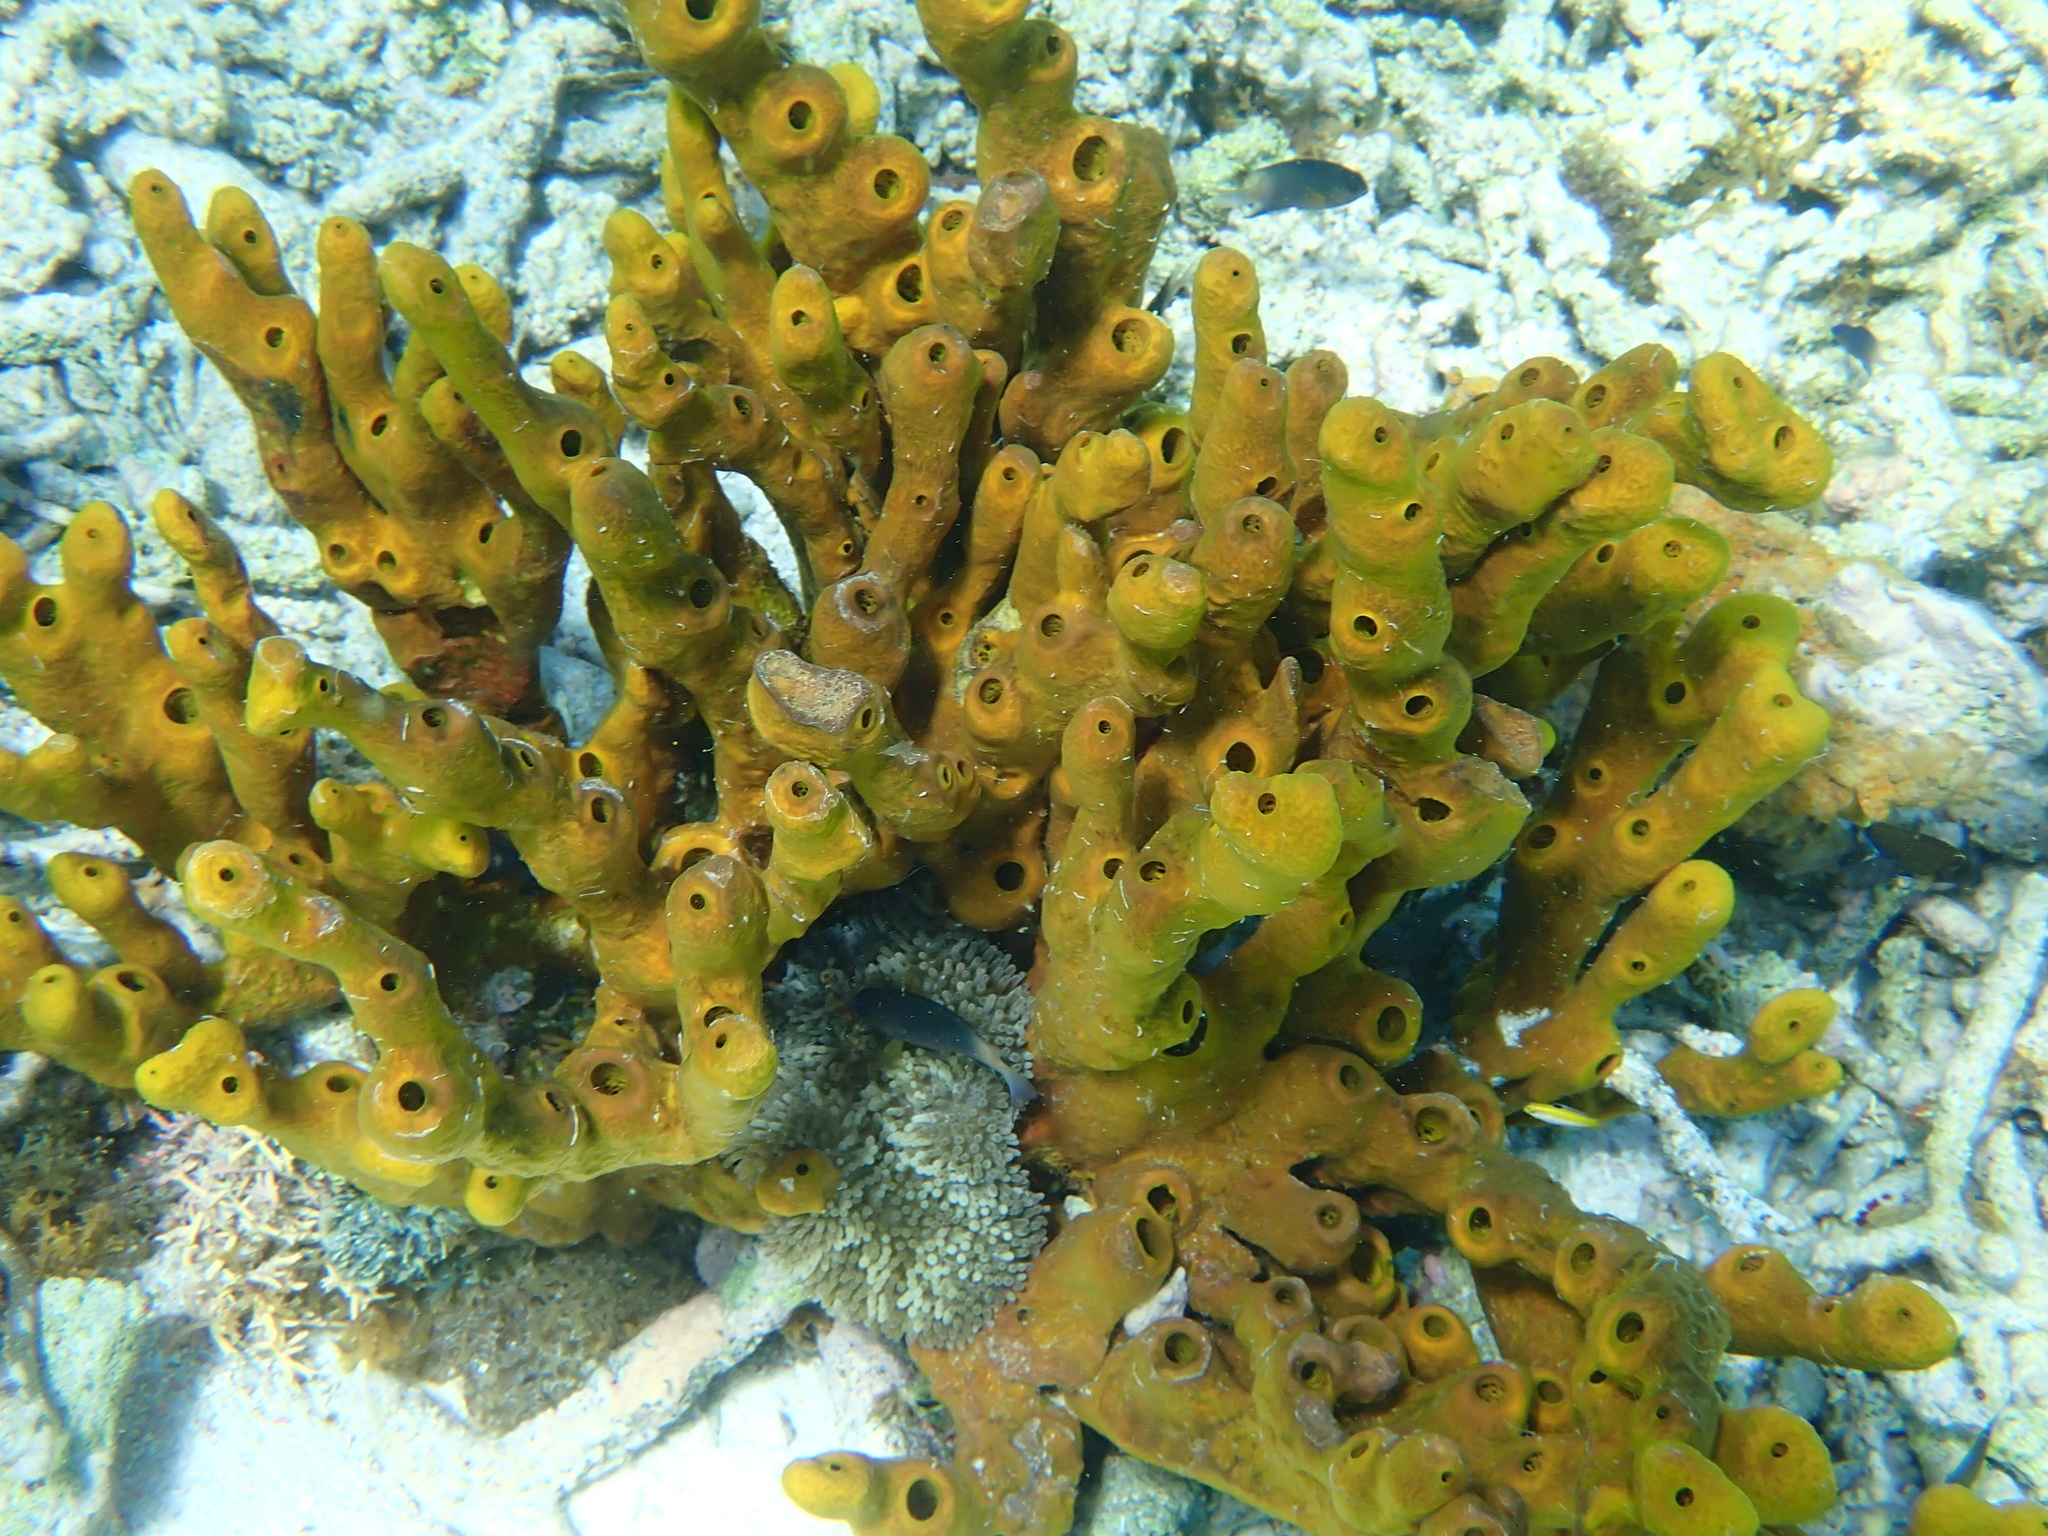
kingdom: Animalia
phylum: Porifera
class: Demospongiae
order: Verongiida
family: Aplysinidae
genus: Aplysina
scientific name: Aplysina fulva
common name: Scattered pore rope sponge
